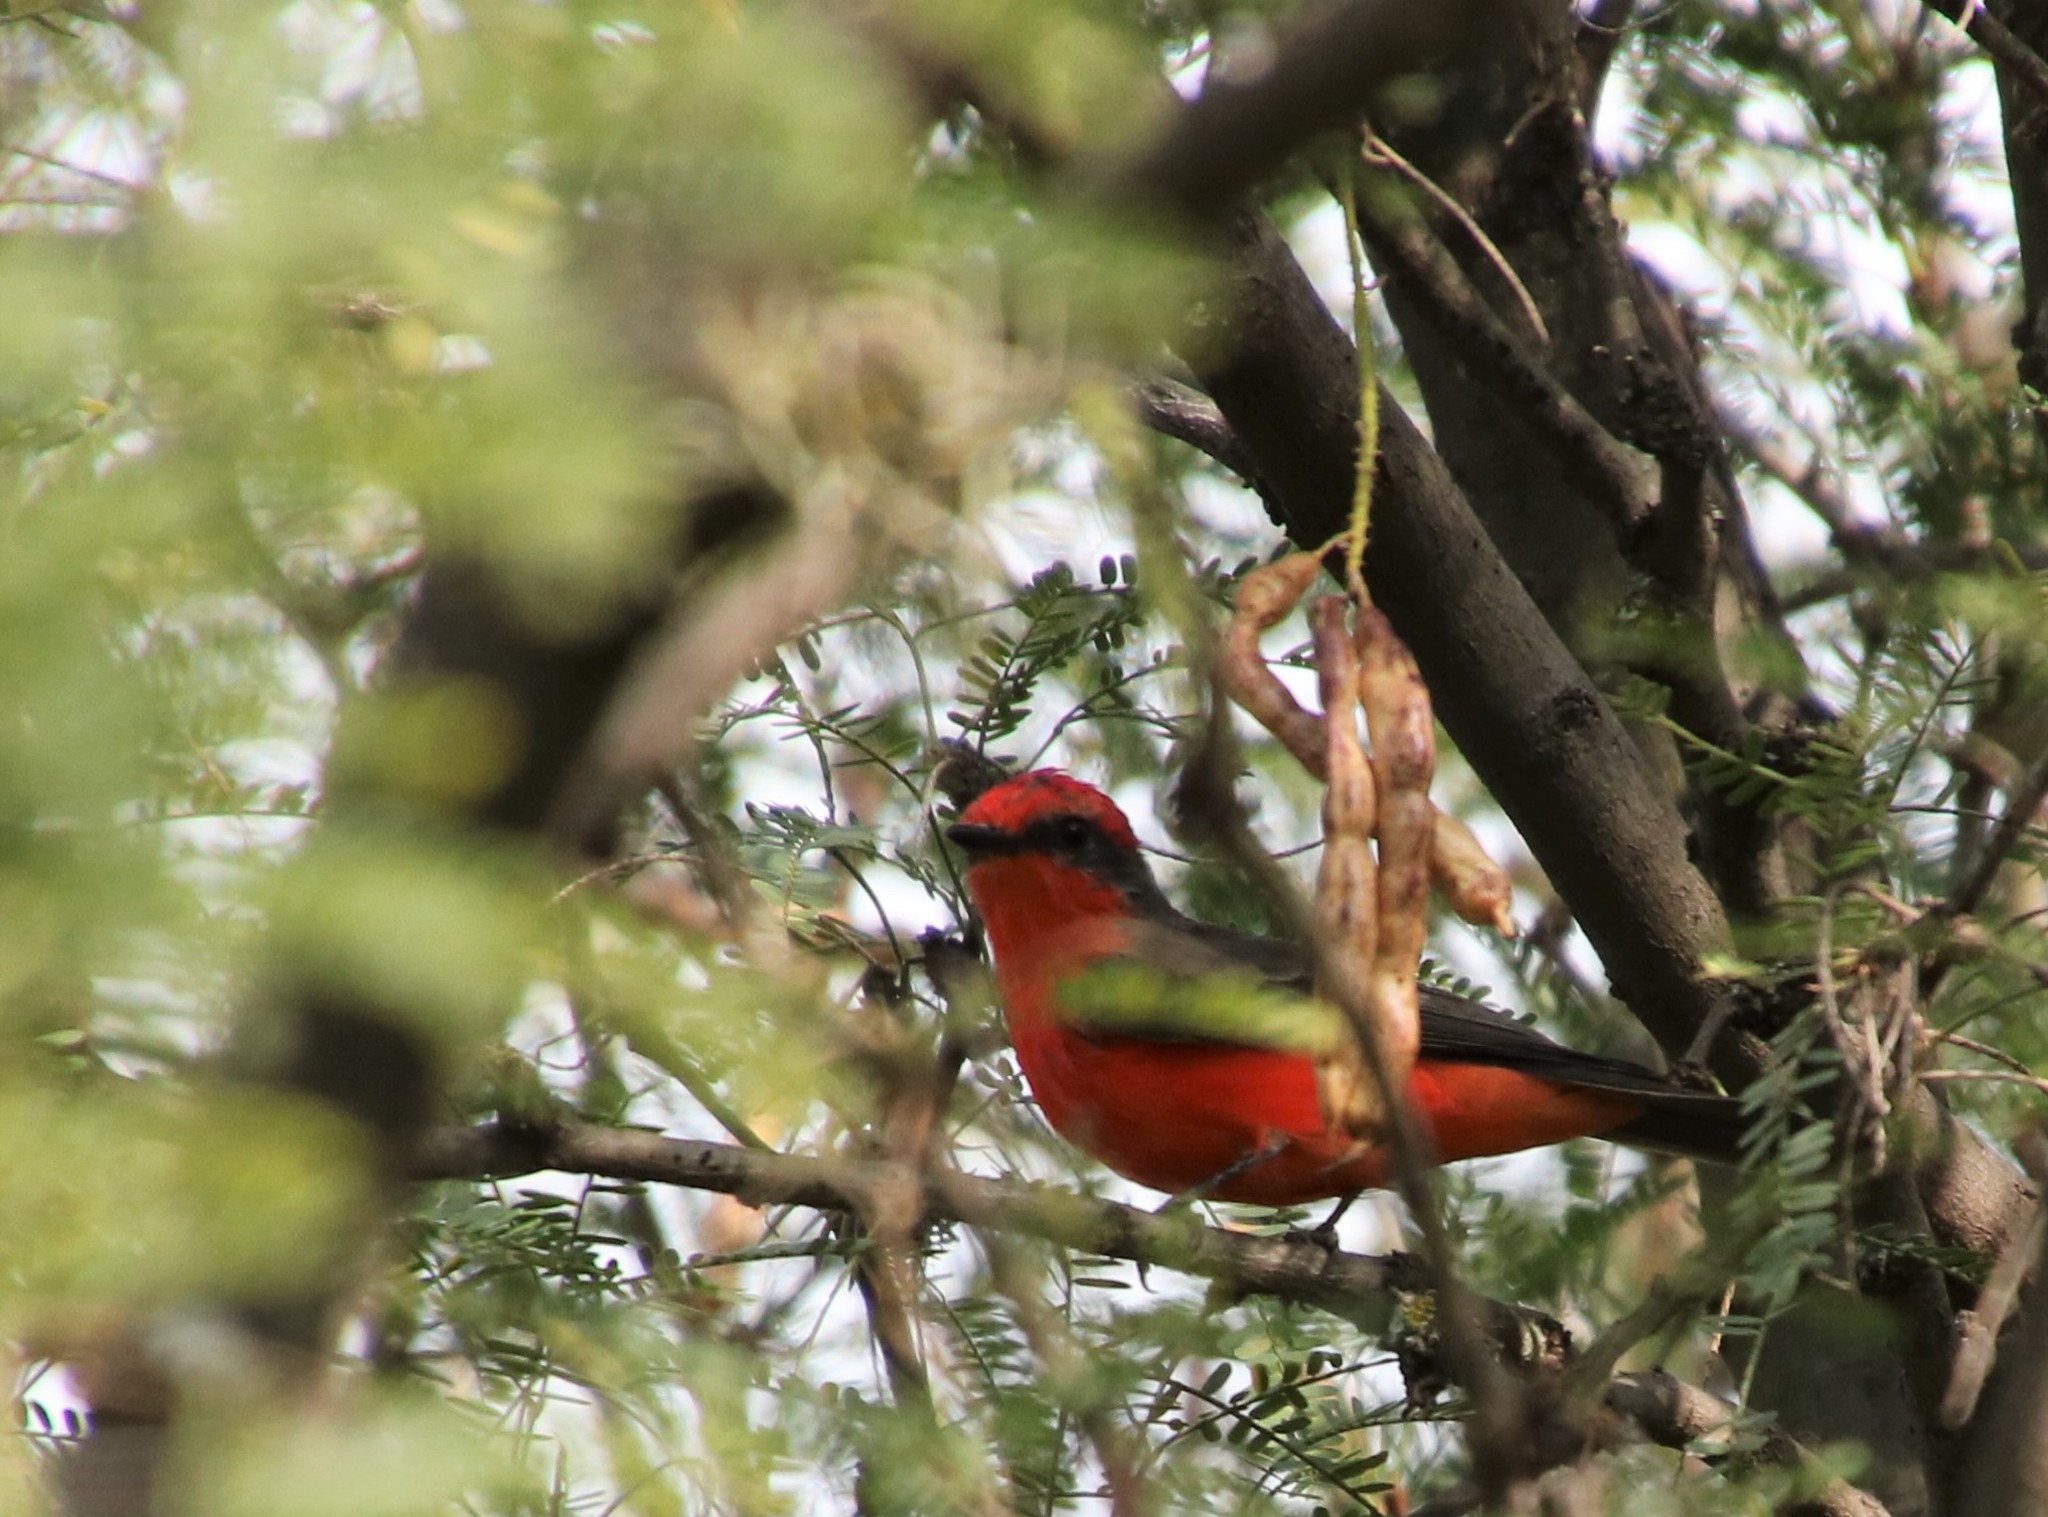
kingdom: Animalia
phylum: Chordata
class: Aves
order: Passeriformes
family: Tyrannidae
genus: Pyrocephalus
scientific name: Pyrocephalus rubinus
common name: Vermilion flycatcher
